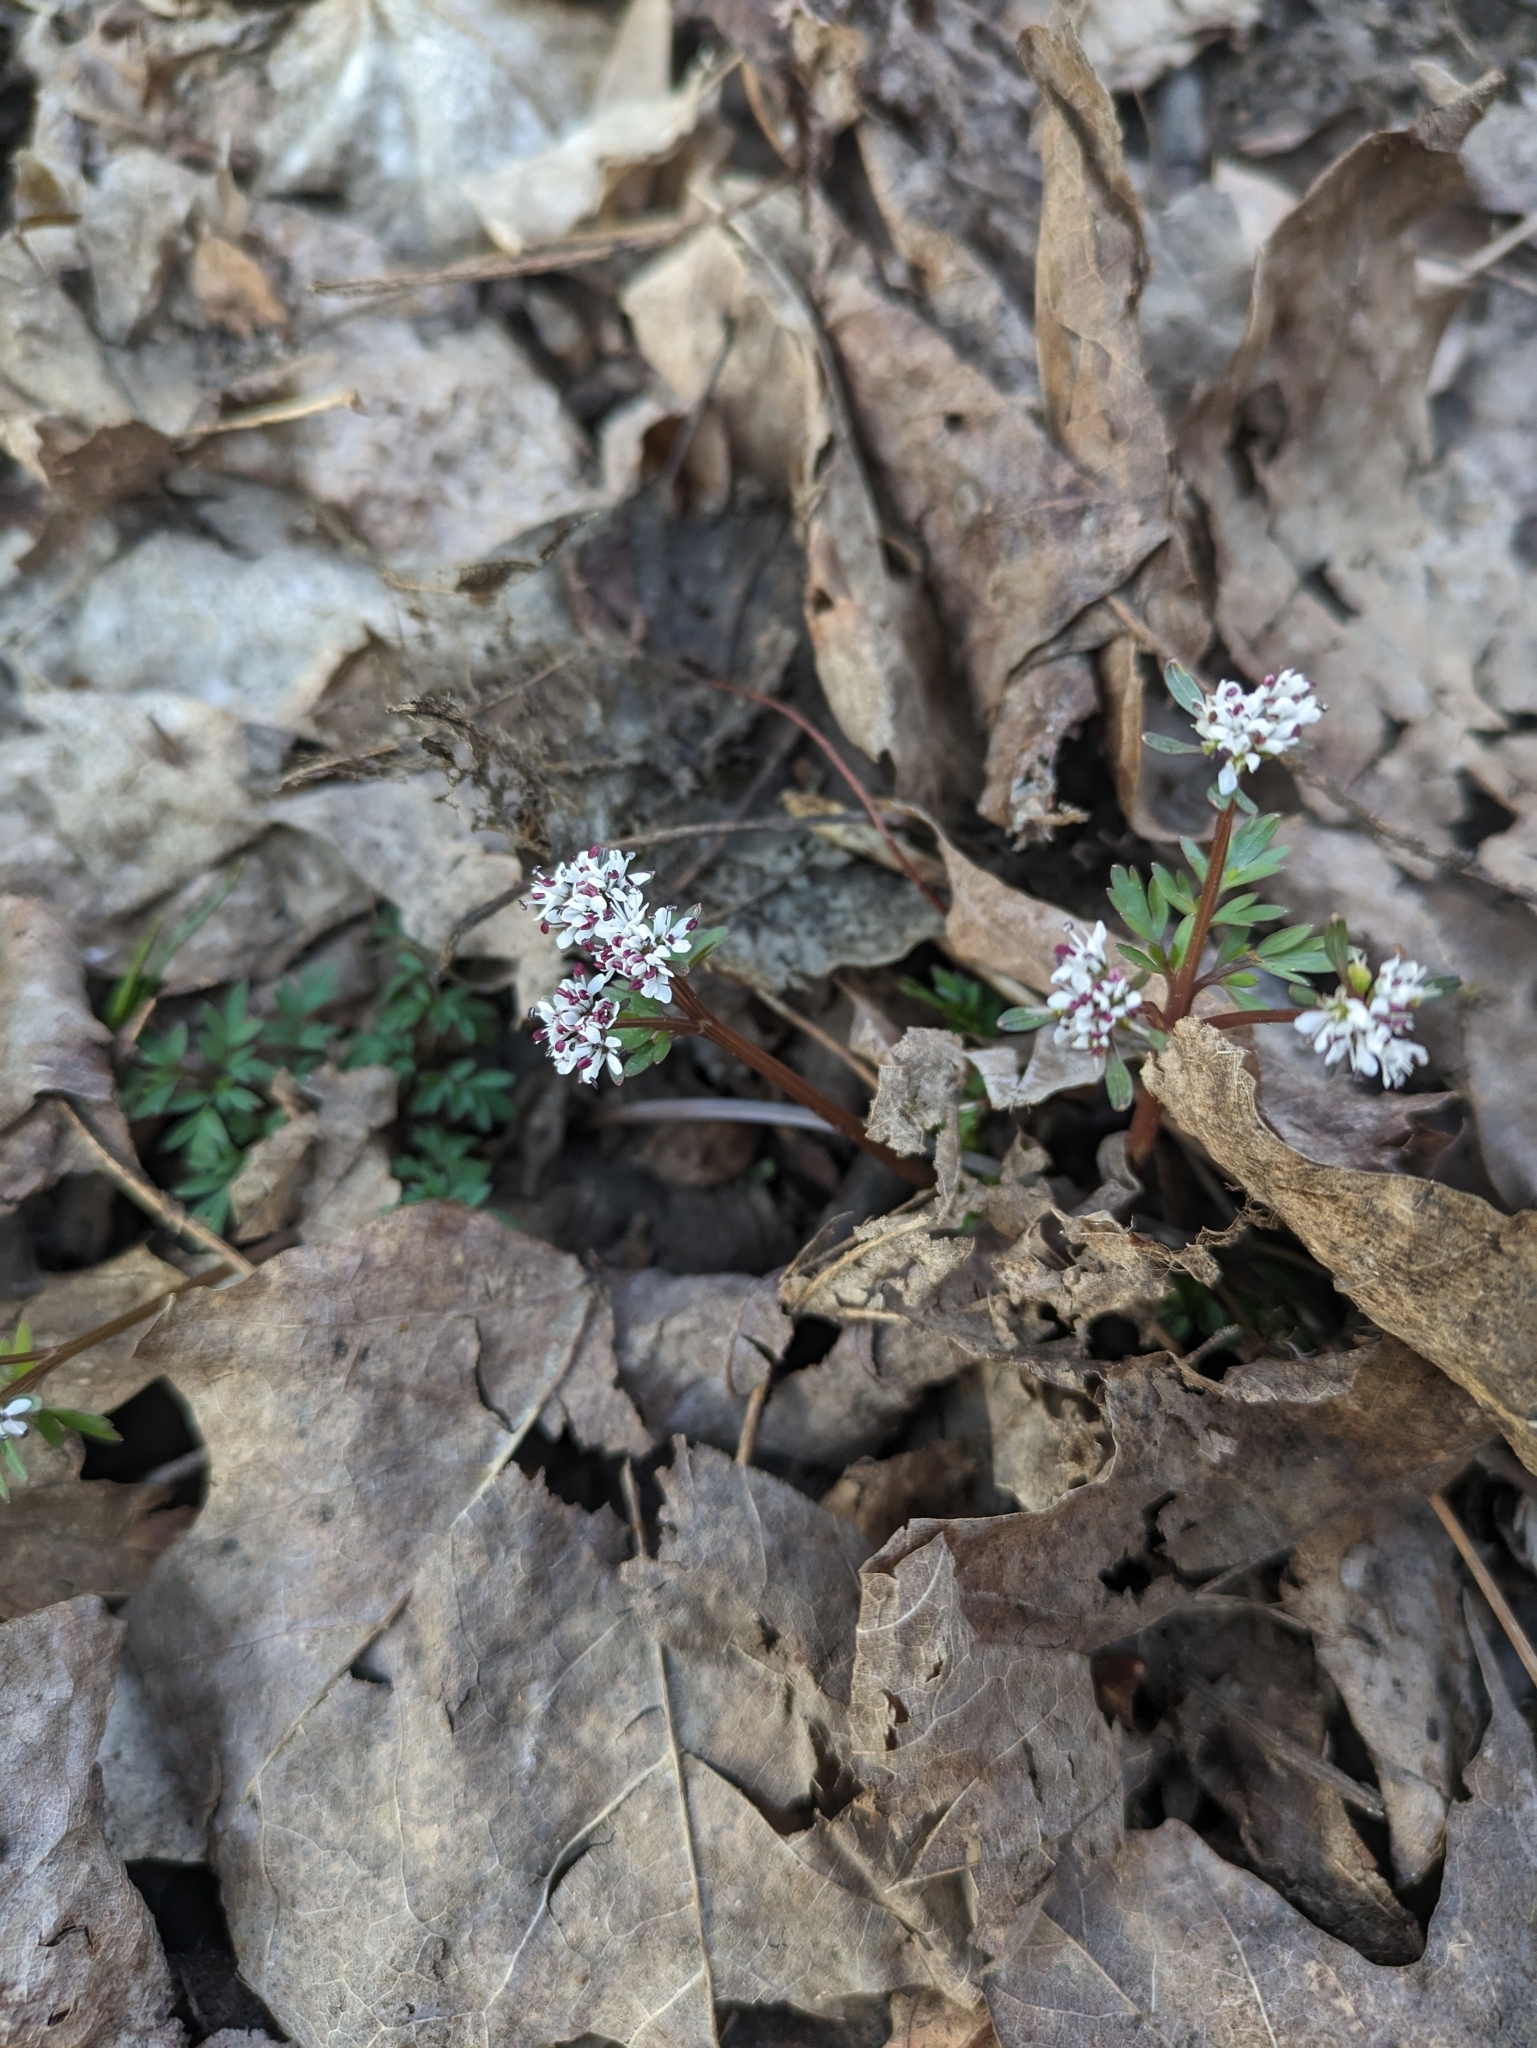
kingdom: Plantae
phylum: Tracheophyta
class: Magnoliopsida
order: Apiales
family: Apiaceae
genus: Erigenia
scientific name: Erigenia bulbosa
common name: Pepper-and-salt
